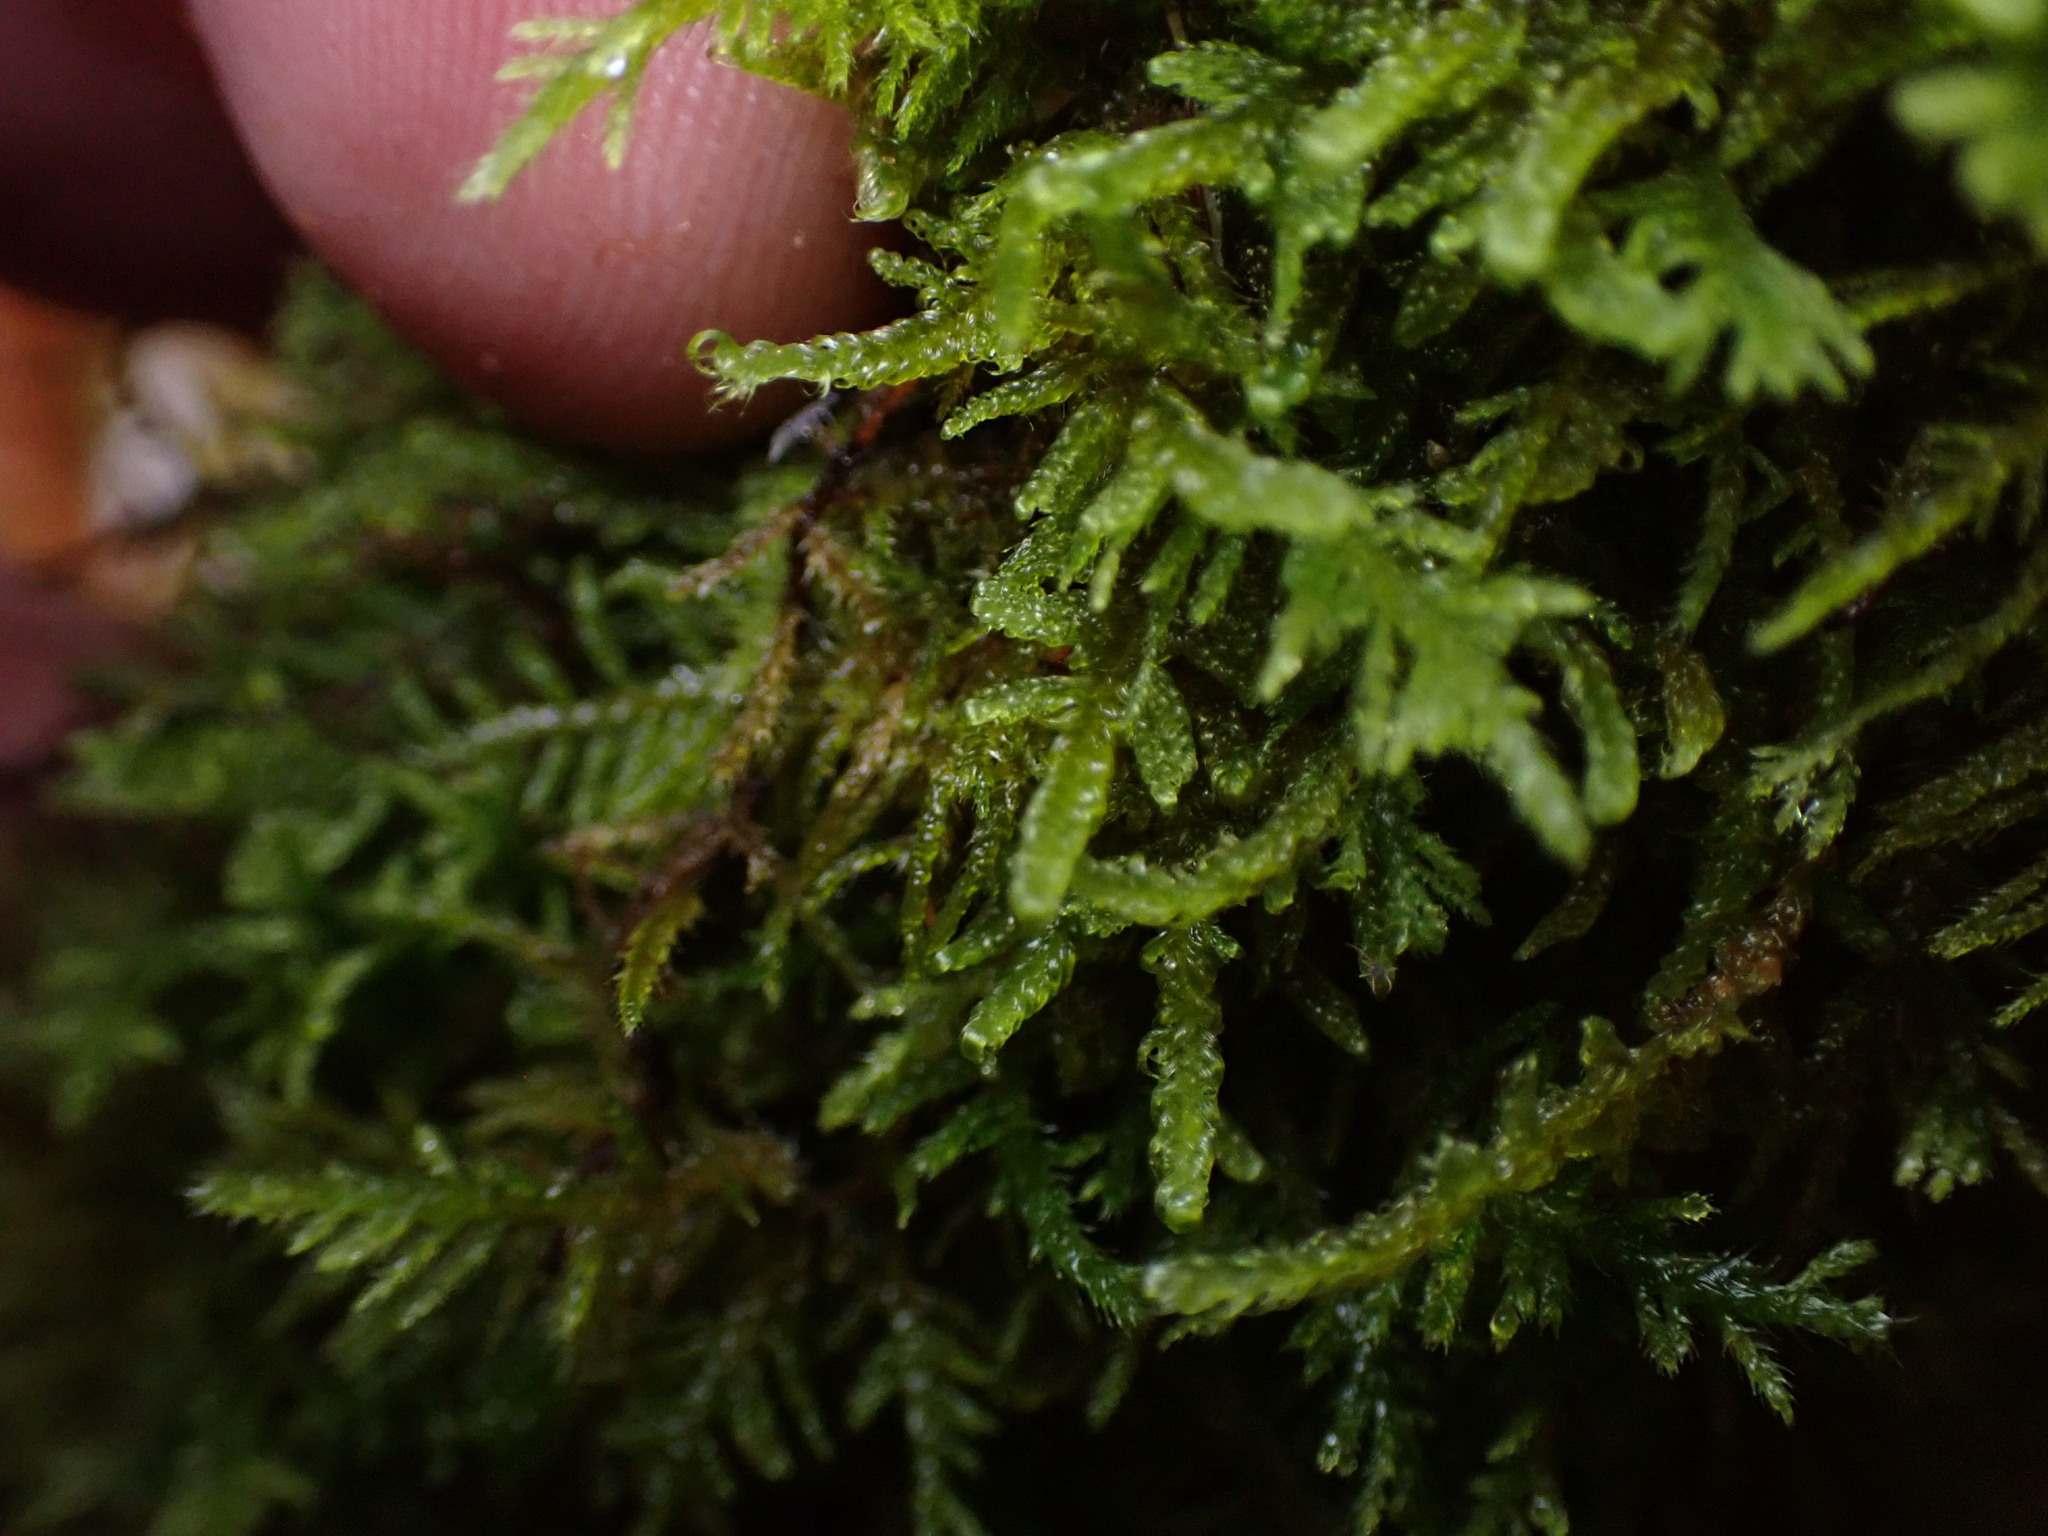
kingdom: Plantae
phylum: Bryophyta
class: Bryopsida
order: Hypnales
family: Scorpidiaceae
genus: Sanionia
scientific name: Sanionia uncinata
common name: Sickle moss
